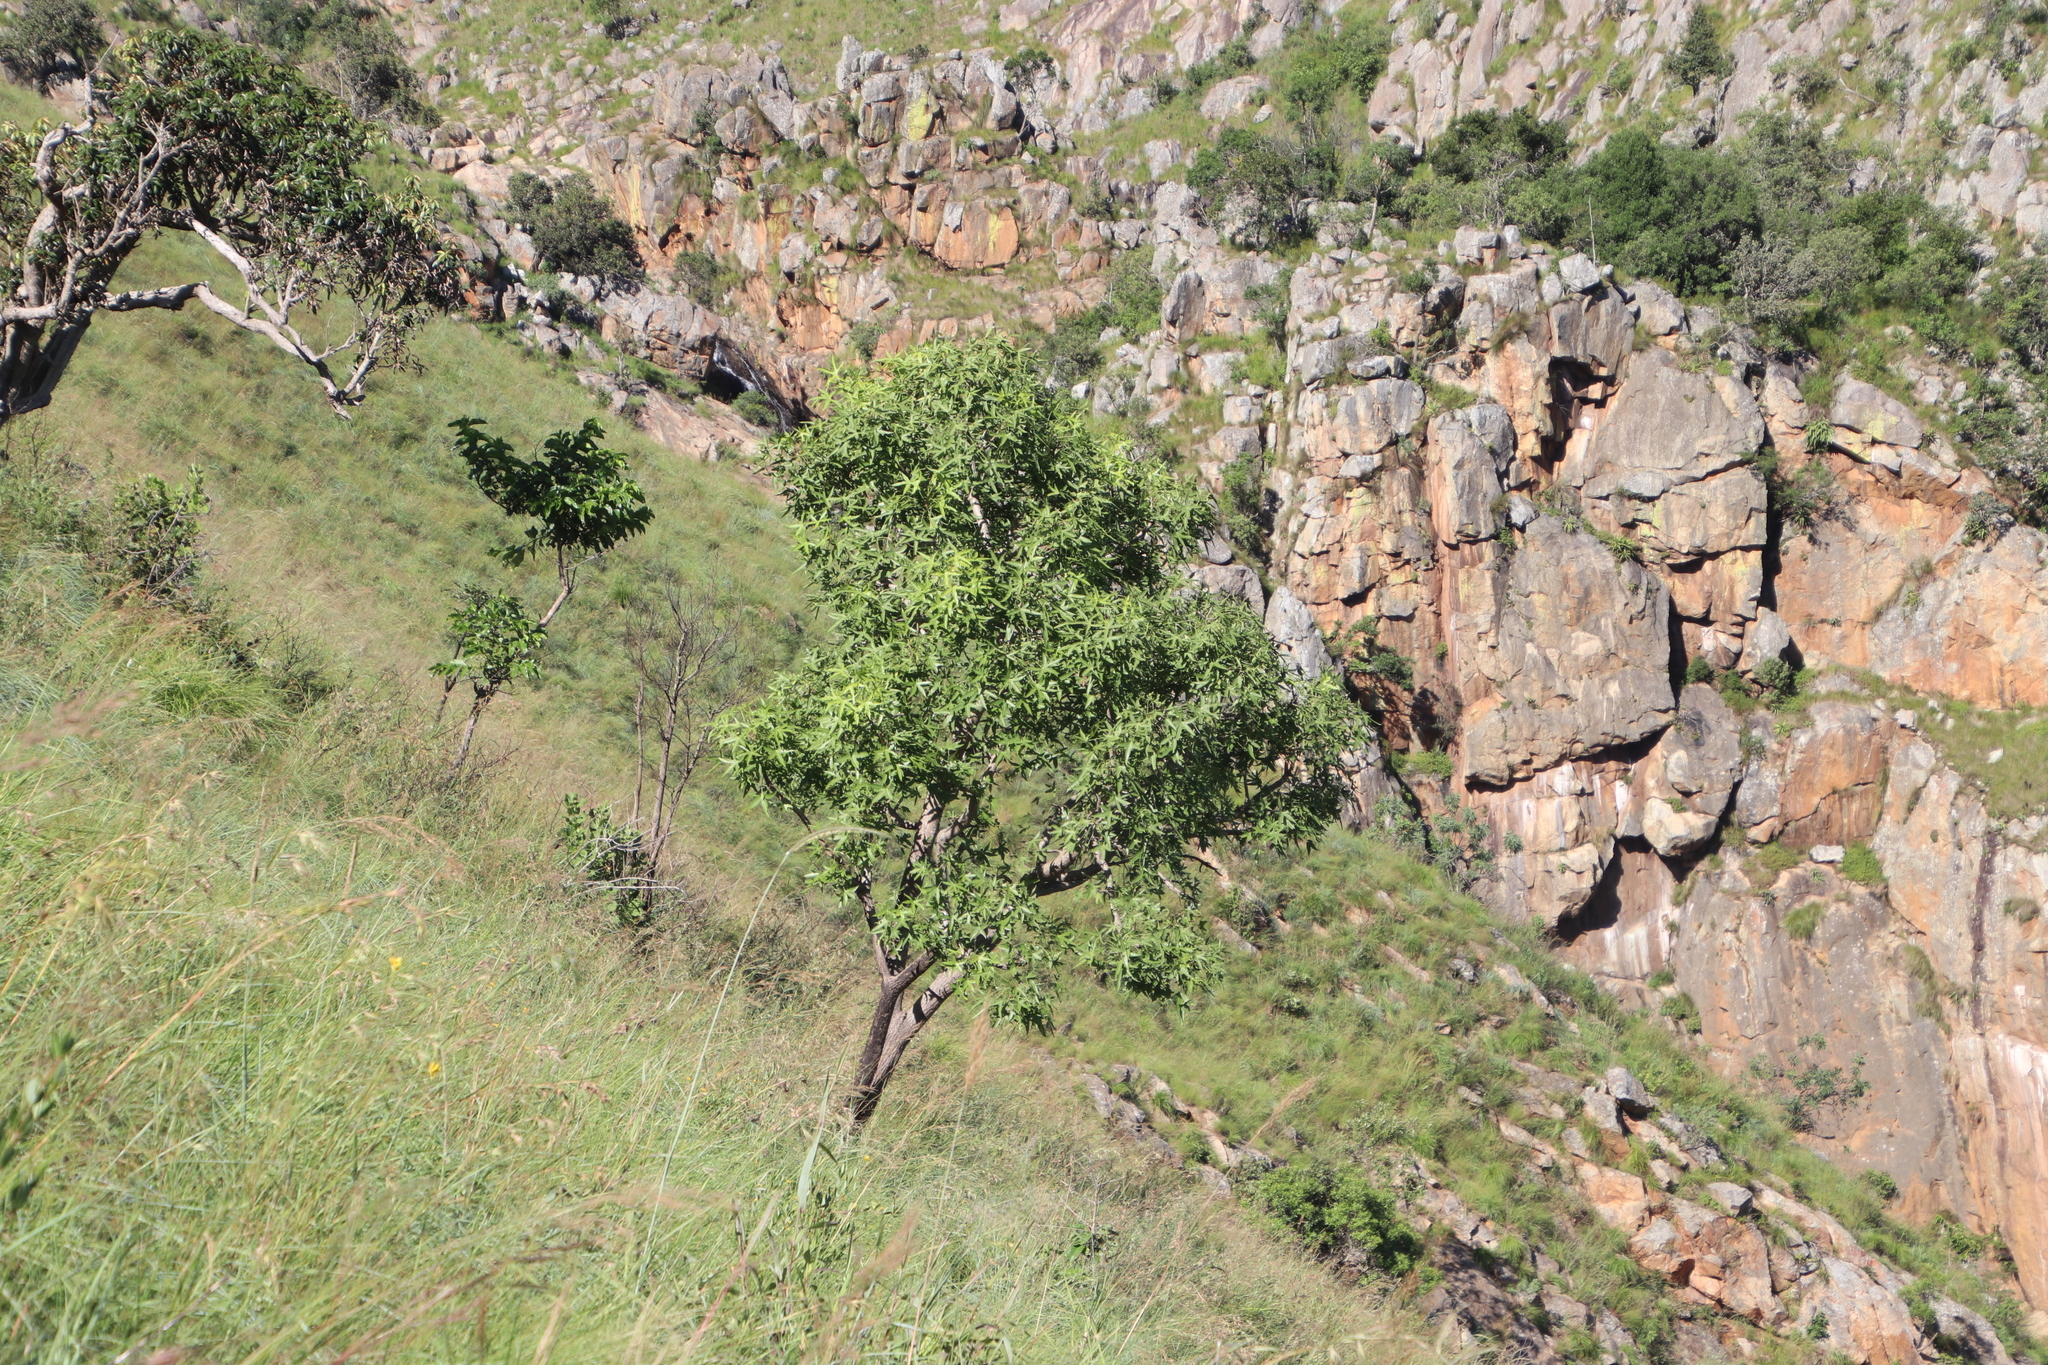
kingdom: Plantae
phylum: Tracheophyta
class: Magnoliopsida
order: Apiales
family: Araliaceae
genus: Cussonia
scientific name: Cussonia natalensis
